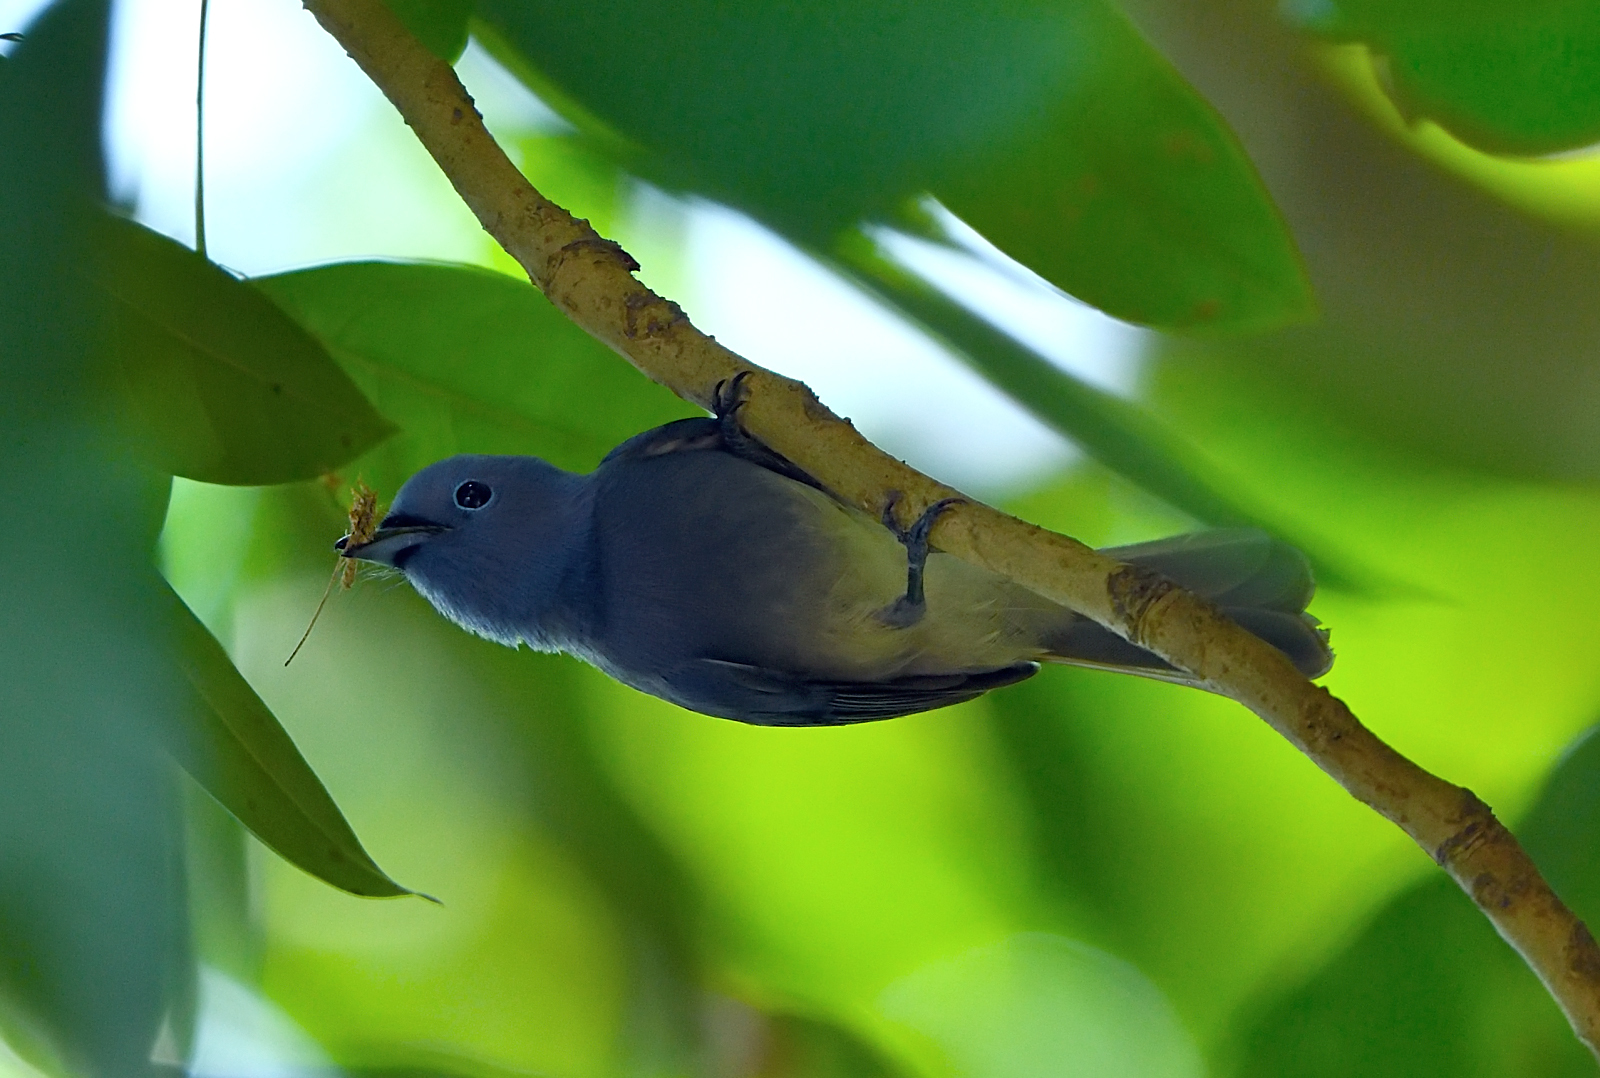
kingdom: Animalia
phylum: Chordata
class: Aves
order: Passeriformes
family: Monarchidae
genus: Hypothymis
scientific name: Hypothymis azurea
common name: Black-naped monarch
